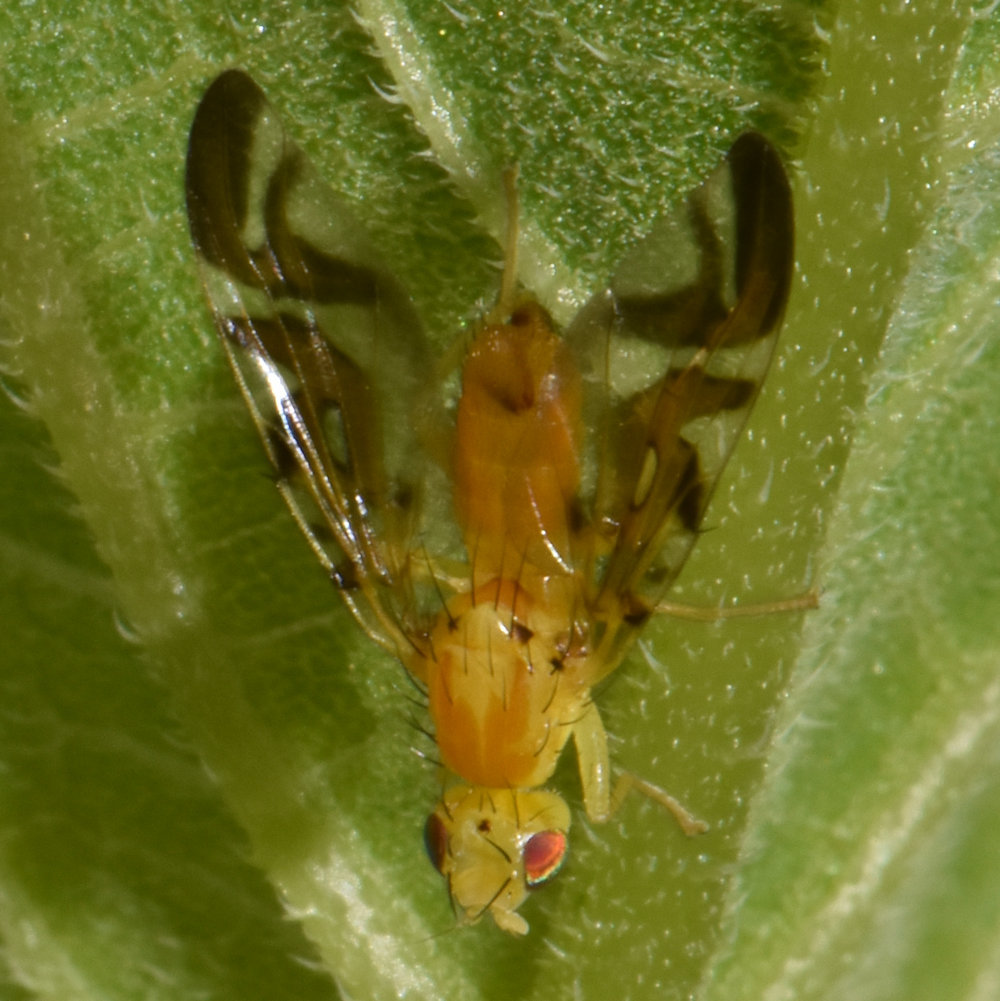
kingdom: Animalia
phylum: Arthropoda
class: Insecta
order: Diptera
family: Tephritidae
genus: Strauzia
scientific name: Strauzia longipennis
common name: Sunflower maggot
